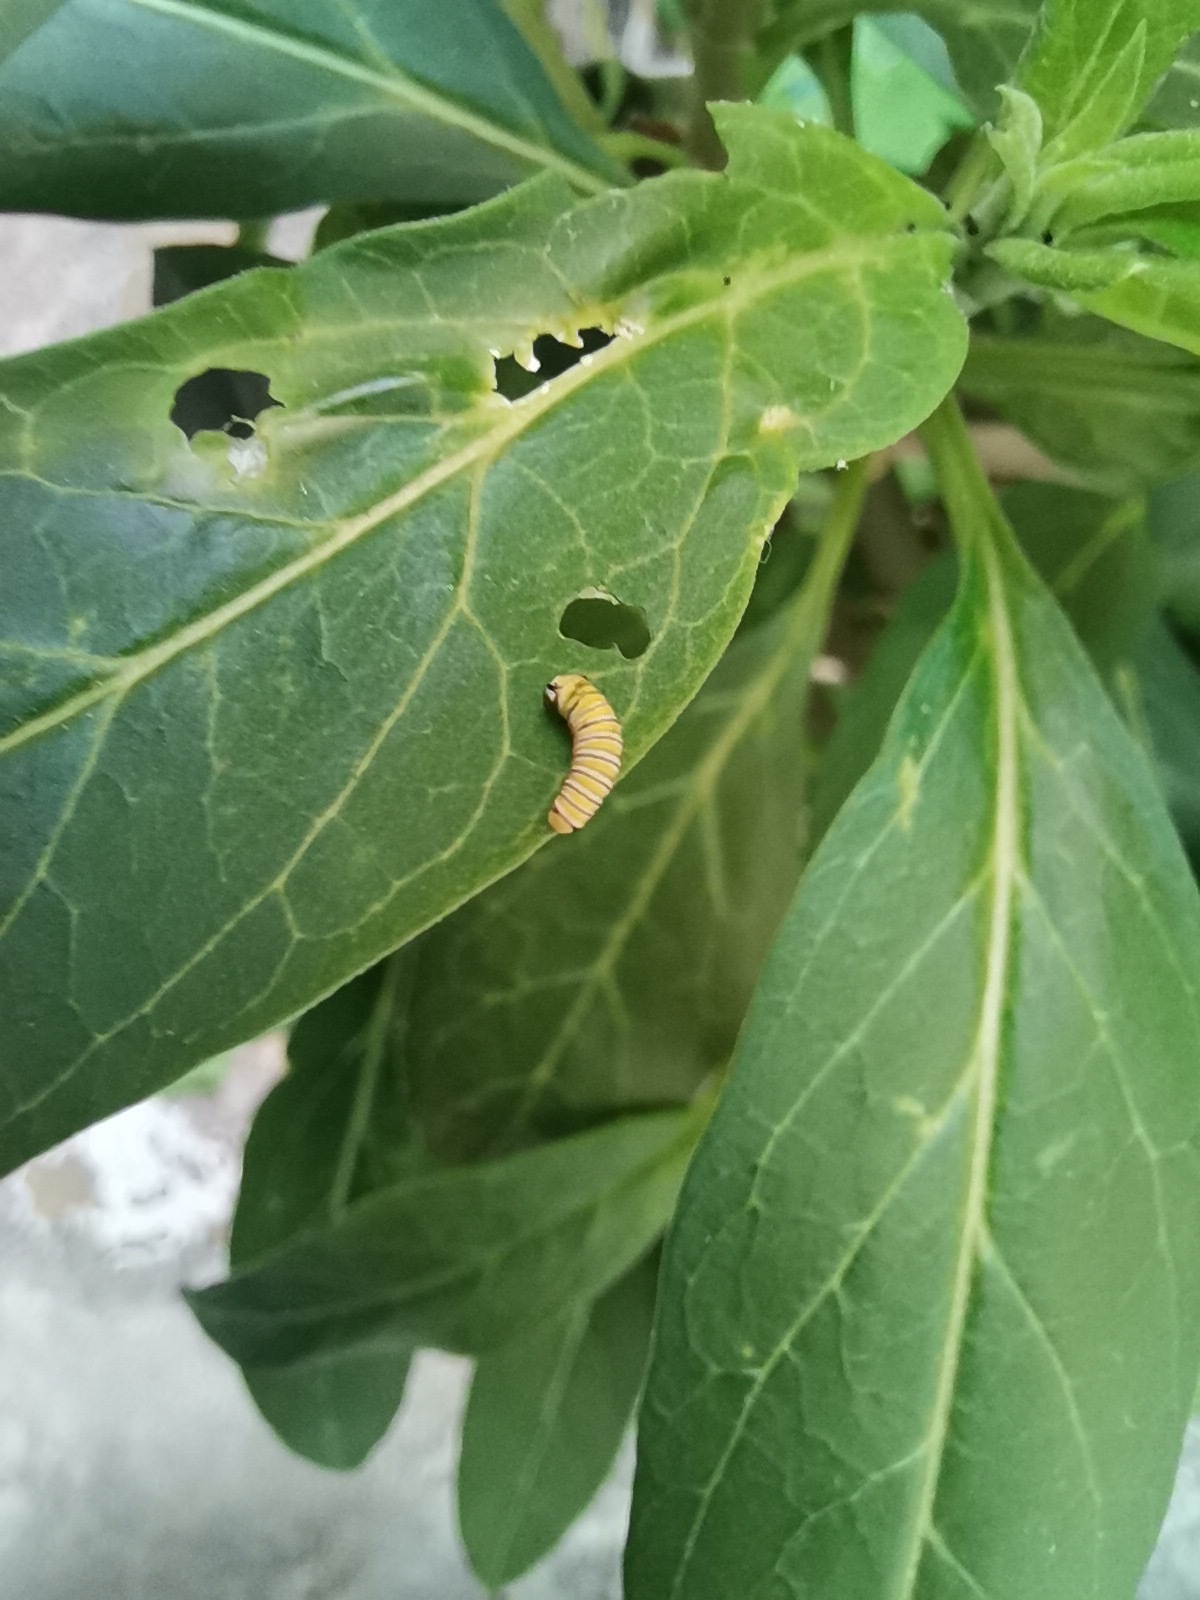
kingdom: Animalia
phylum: Arthropoda
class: Insecta
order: Lepidoptera
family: Nymphalidae
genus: Danaus
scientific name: Danaus plexippus
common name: Monarch
